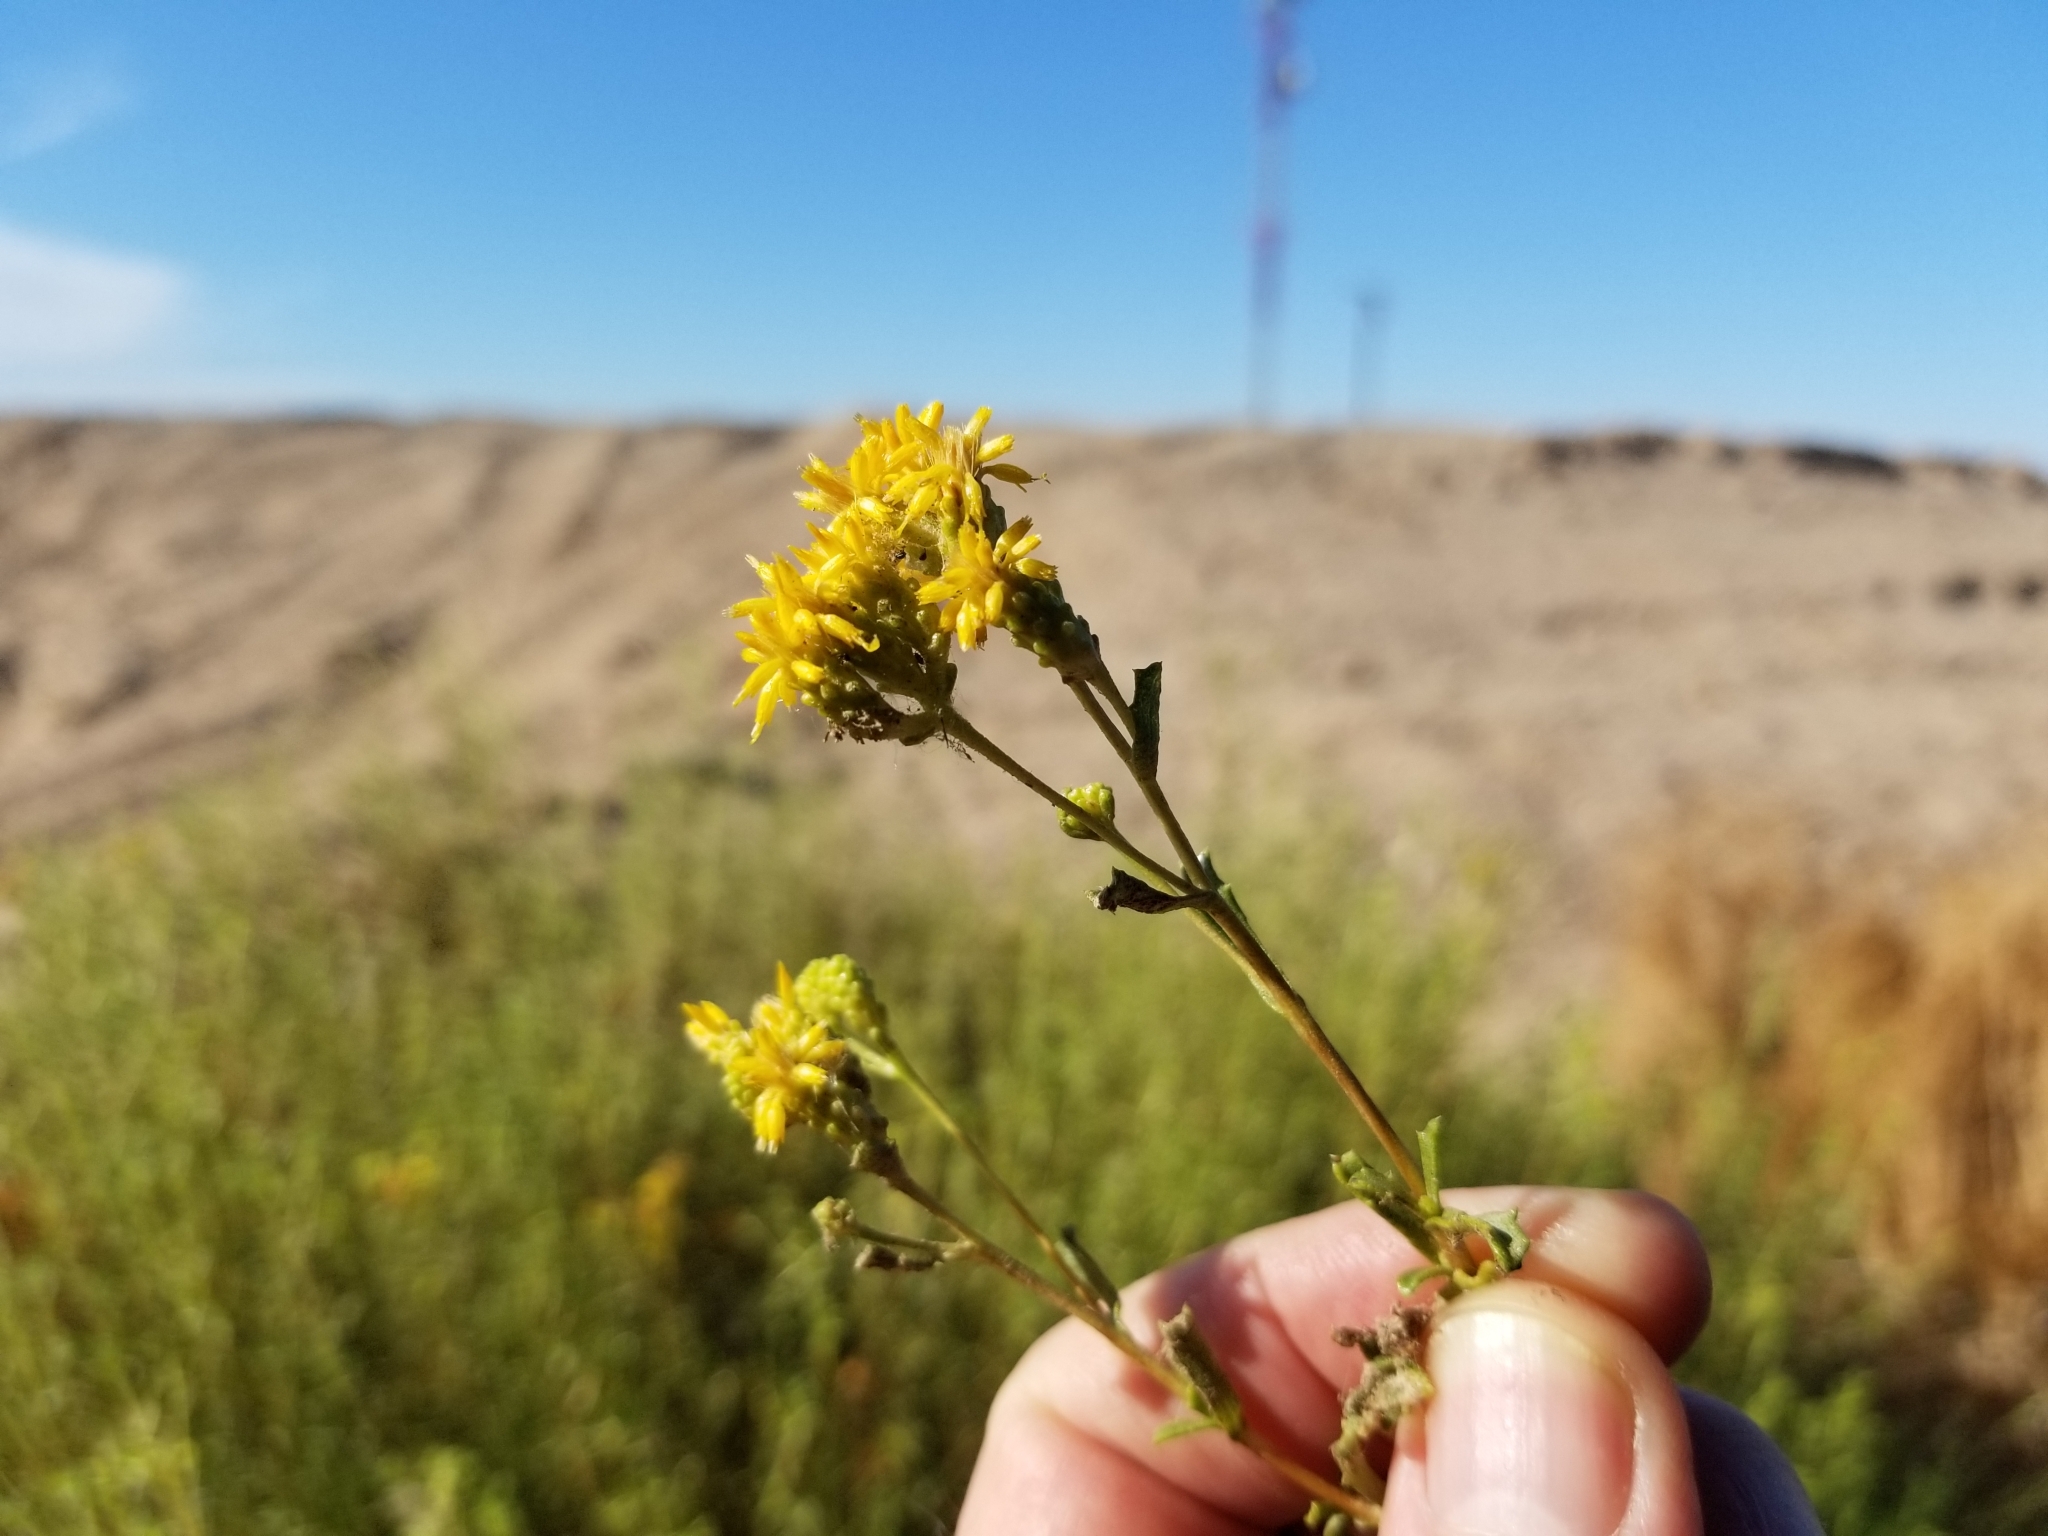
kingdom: Plantae
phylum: Tracheophyta
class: Magnoliopsida
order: Asterales
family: Asteraceae
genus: Isocoma
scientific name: Isocoma acradenia
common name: Alkali jimmyweed
